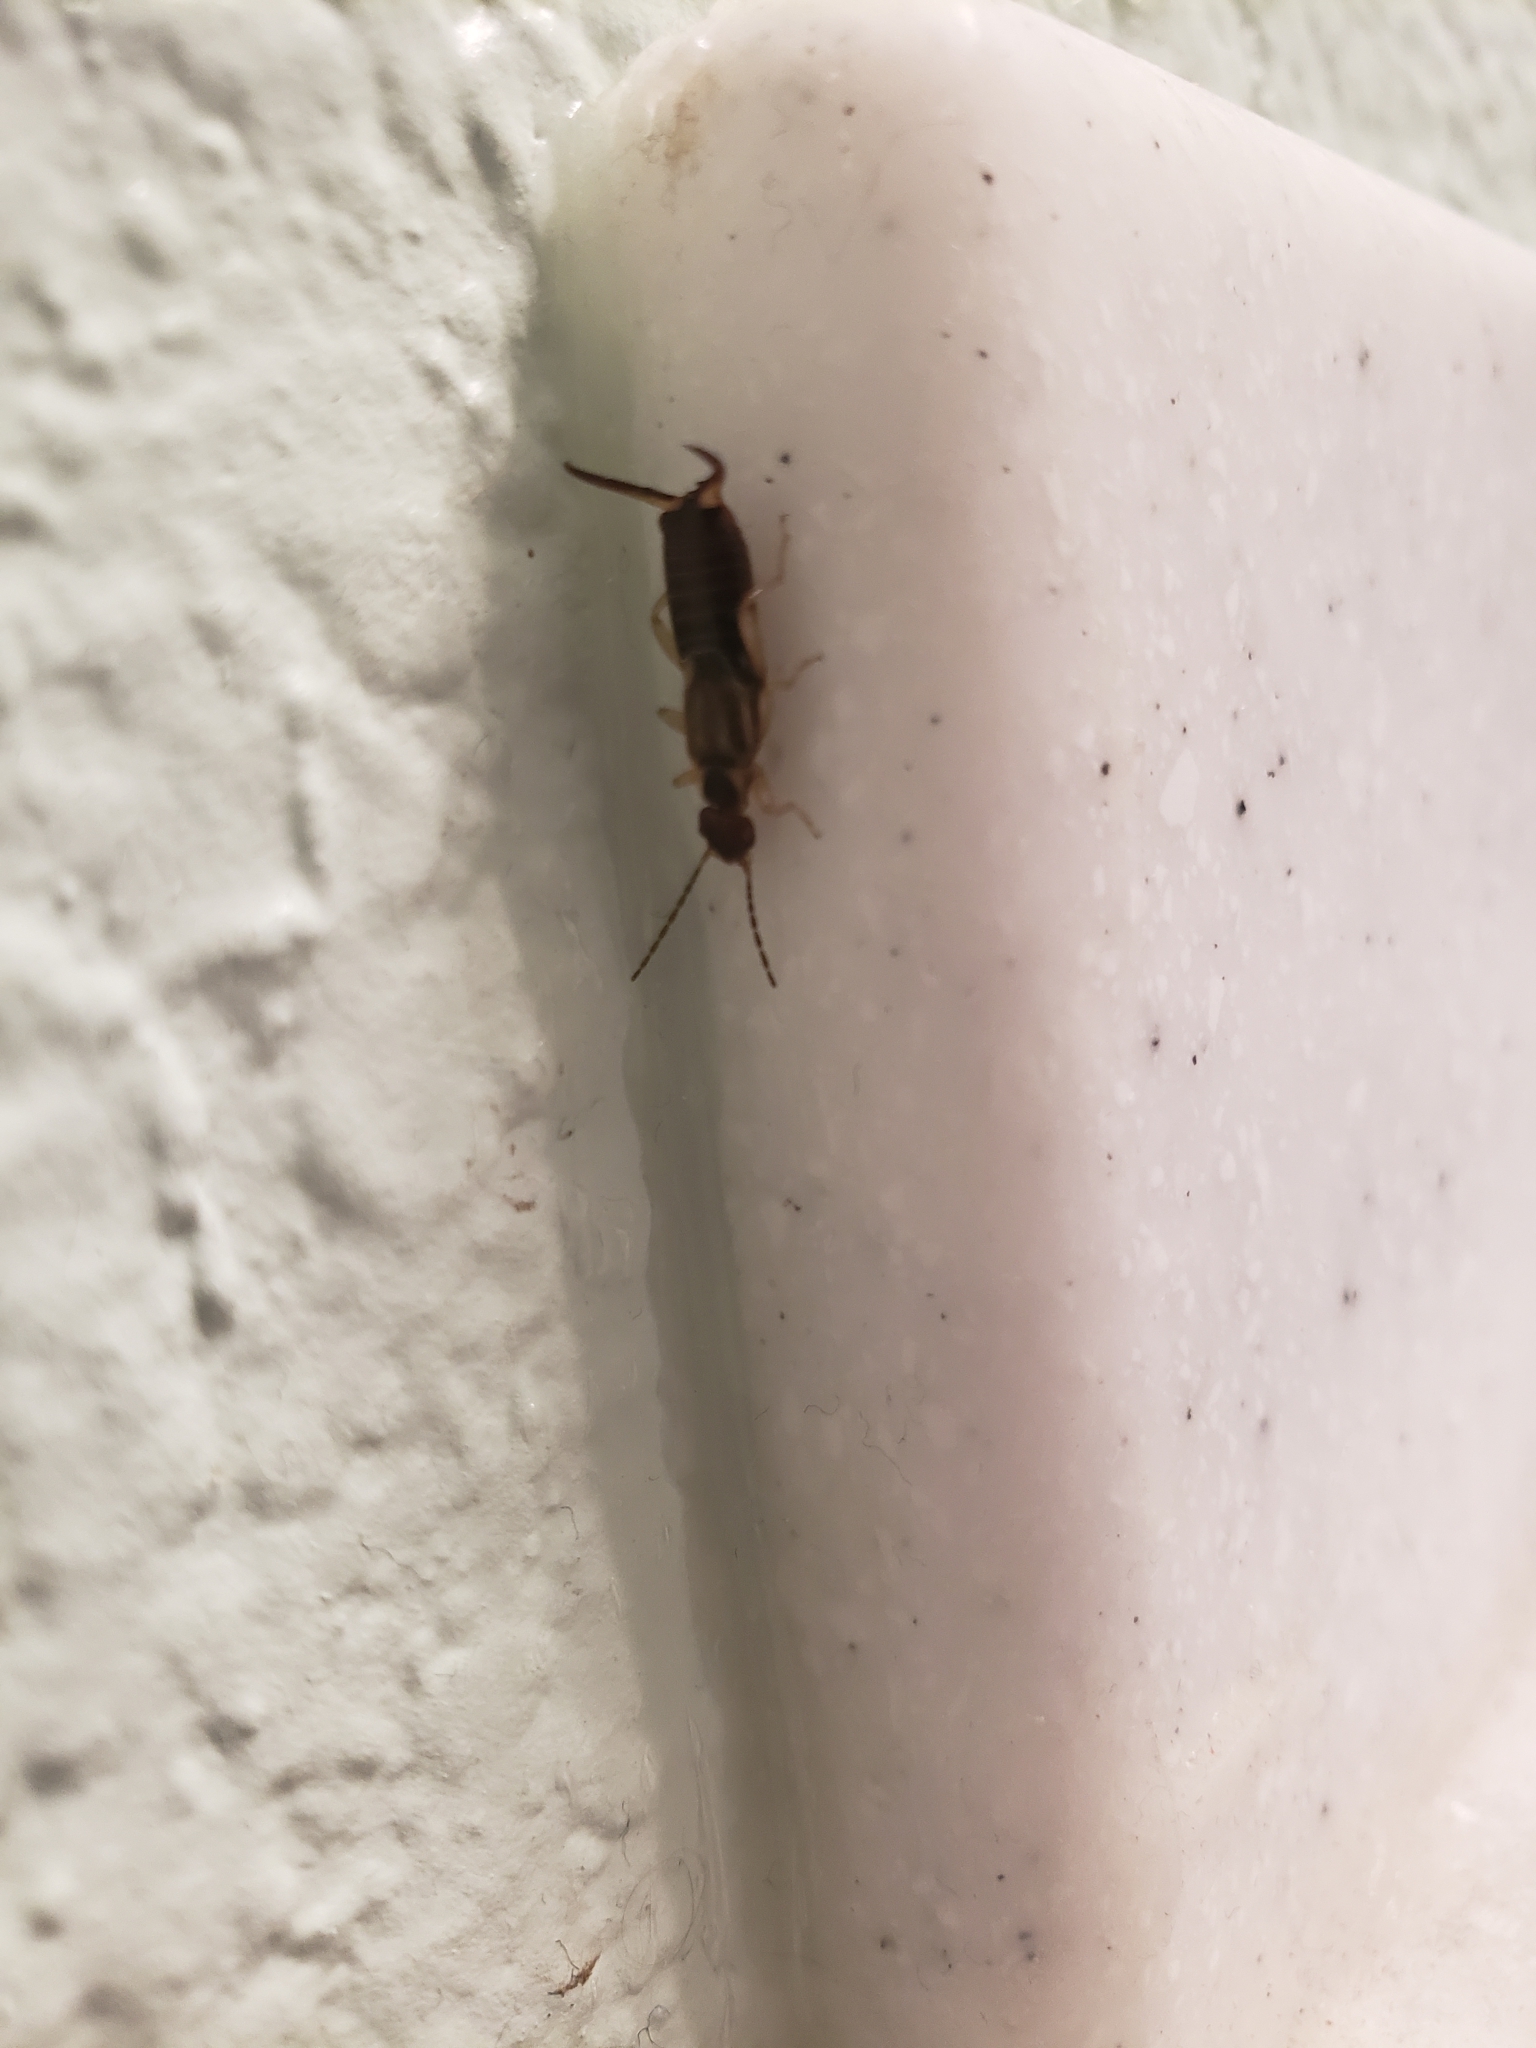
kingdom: Animalia
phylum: Arthropoda
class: Insecta
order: Dermaptera
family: Forficulidae
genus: Forficula
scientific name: Forficula
